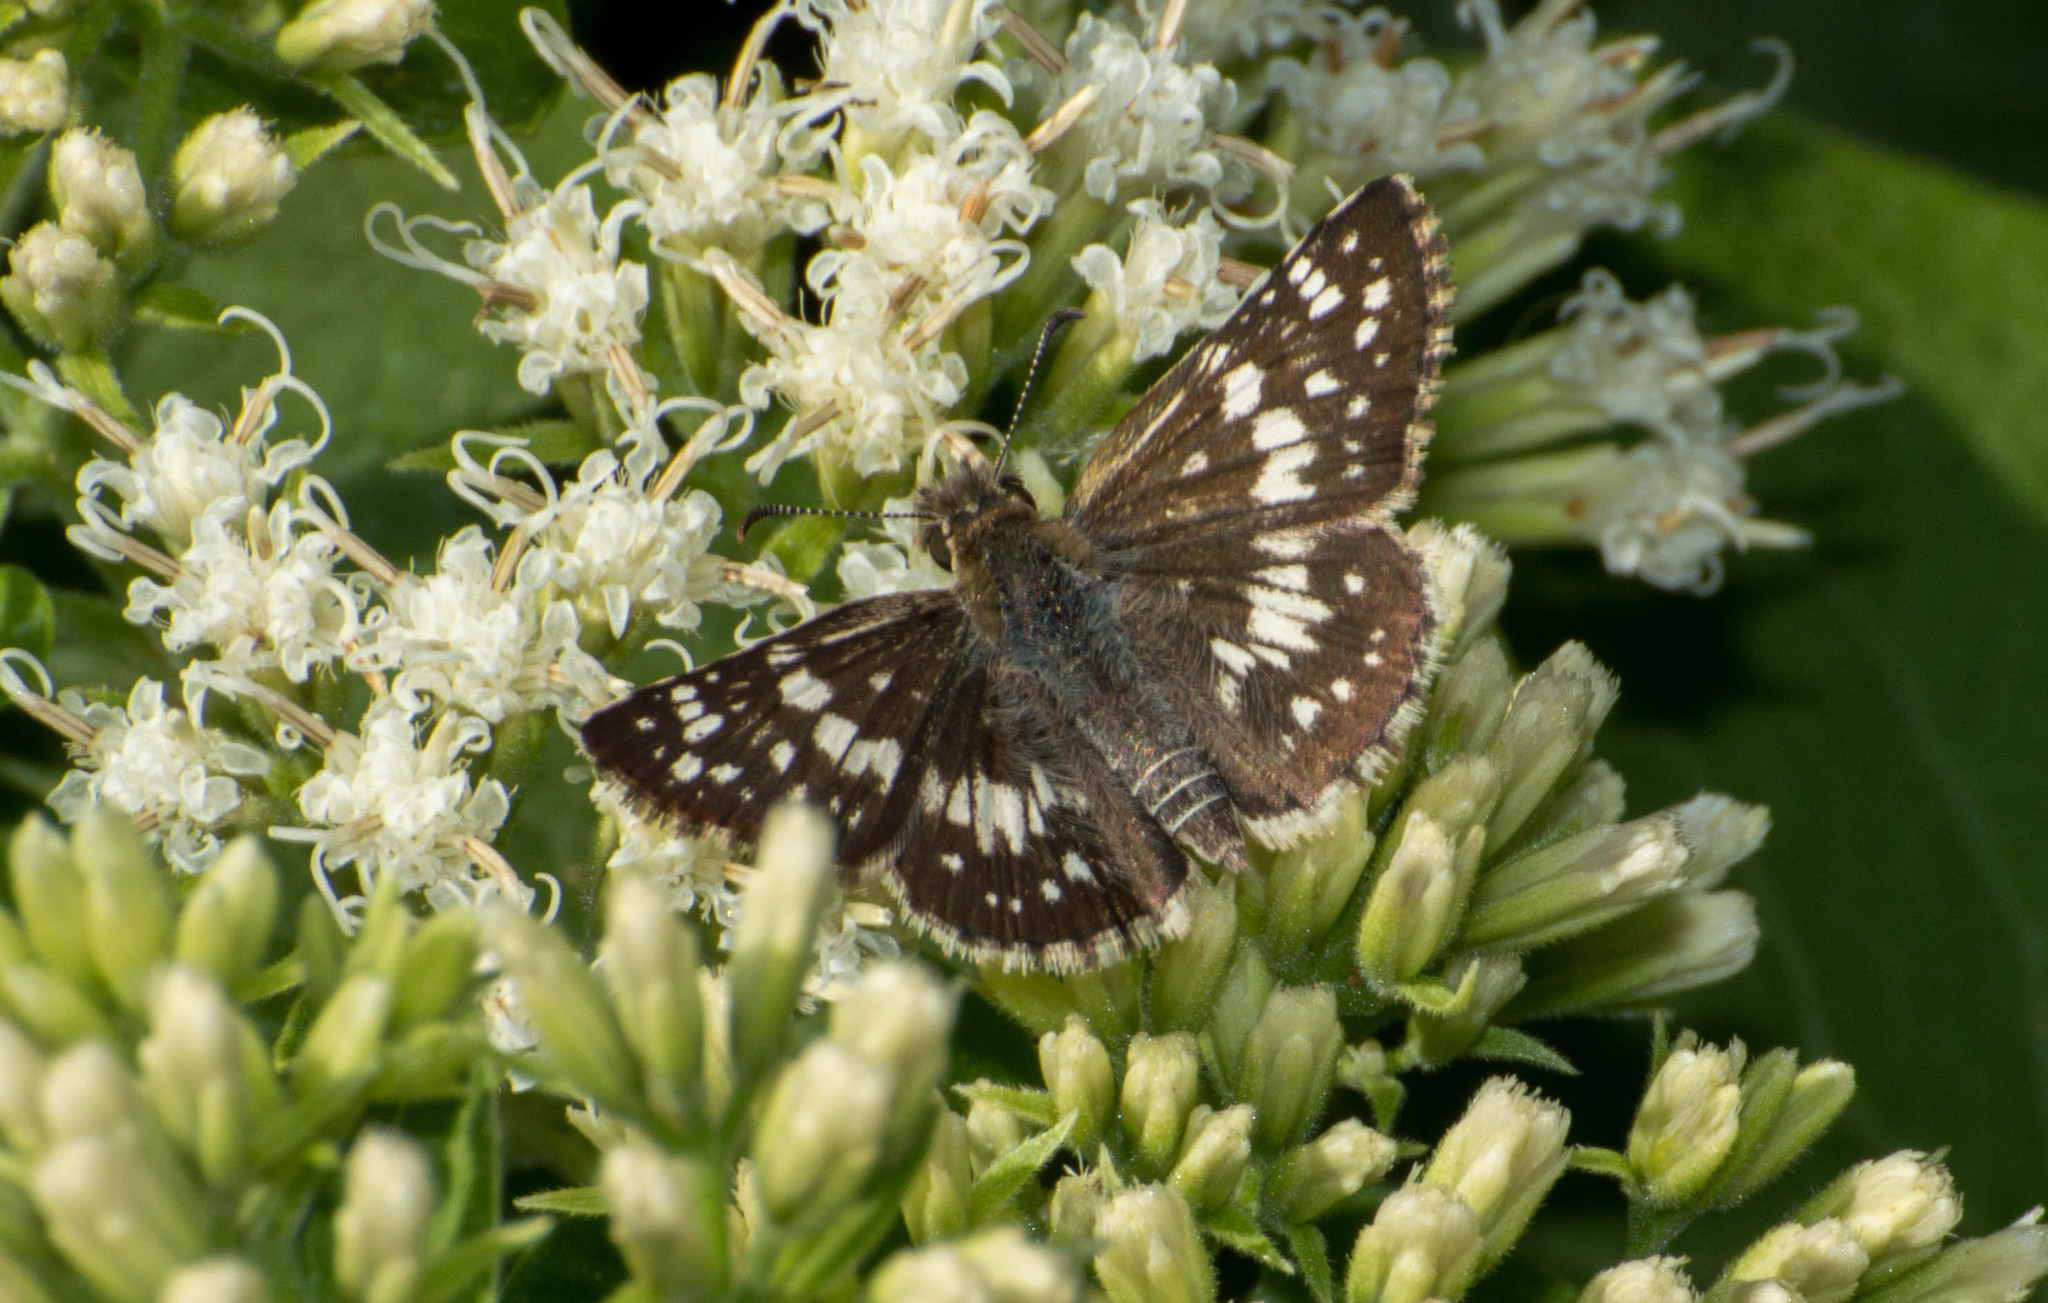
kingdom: Animalia
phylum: Arthropoda
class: Insecta
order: Lepidoptera
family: Hesperiidae
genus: Burnsius
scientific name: Burnsius orcynoides
